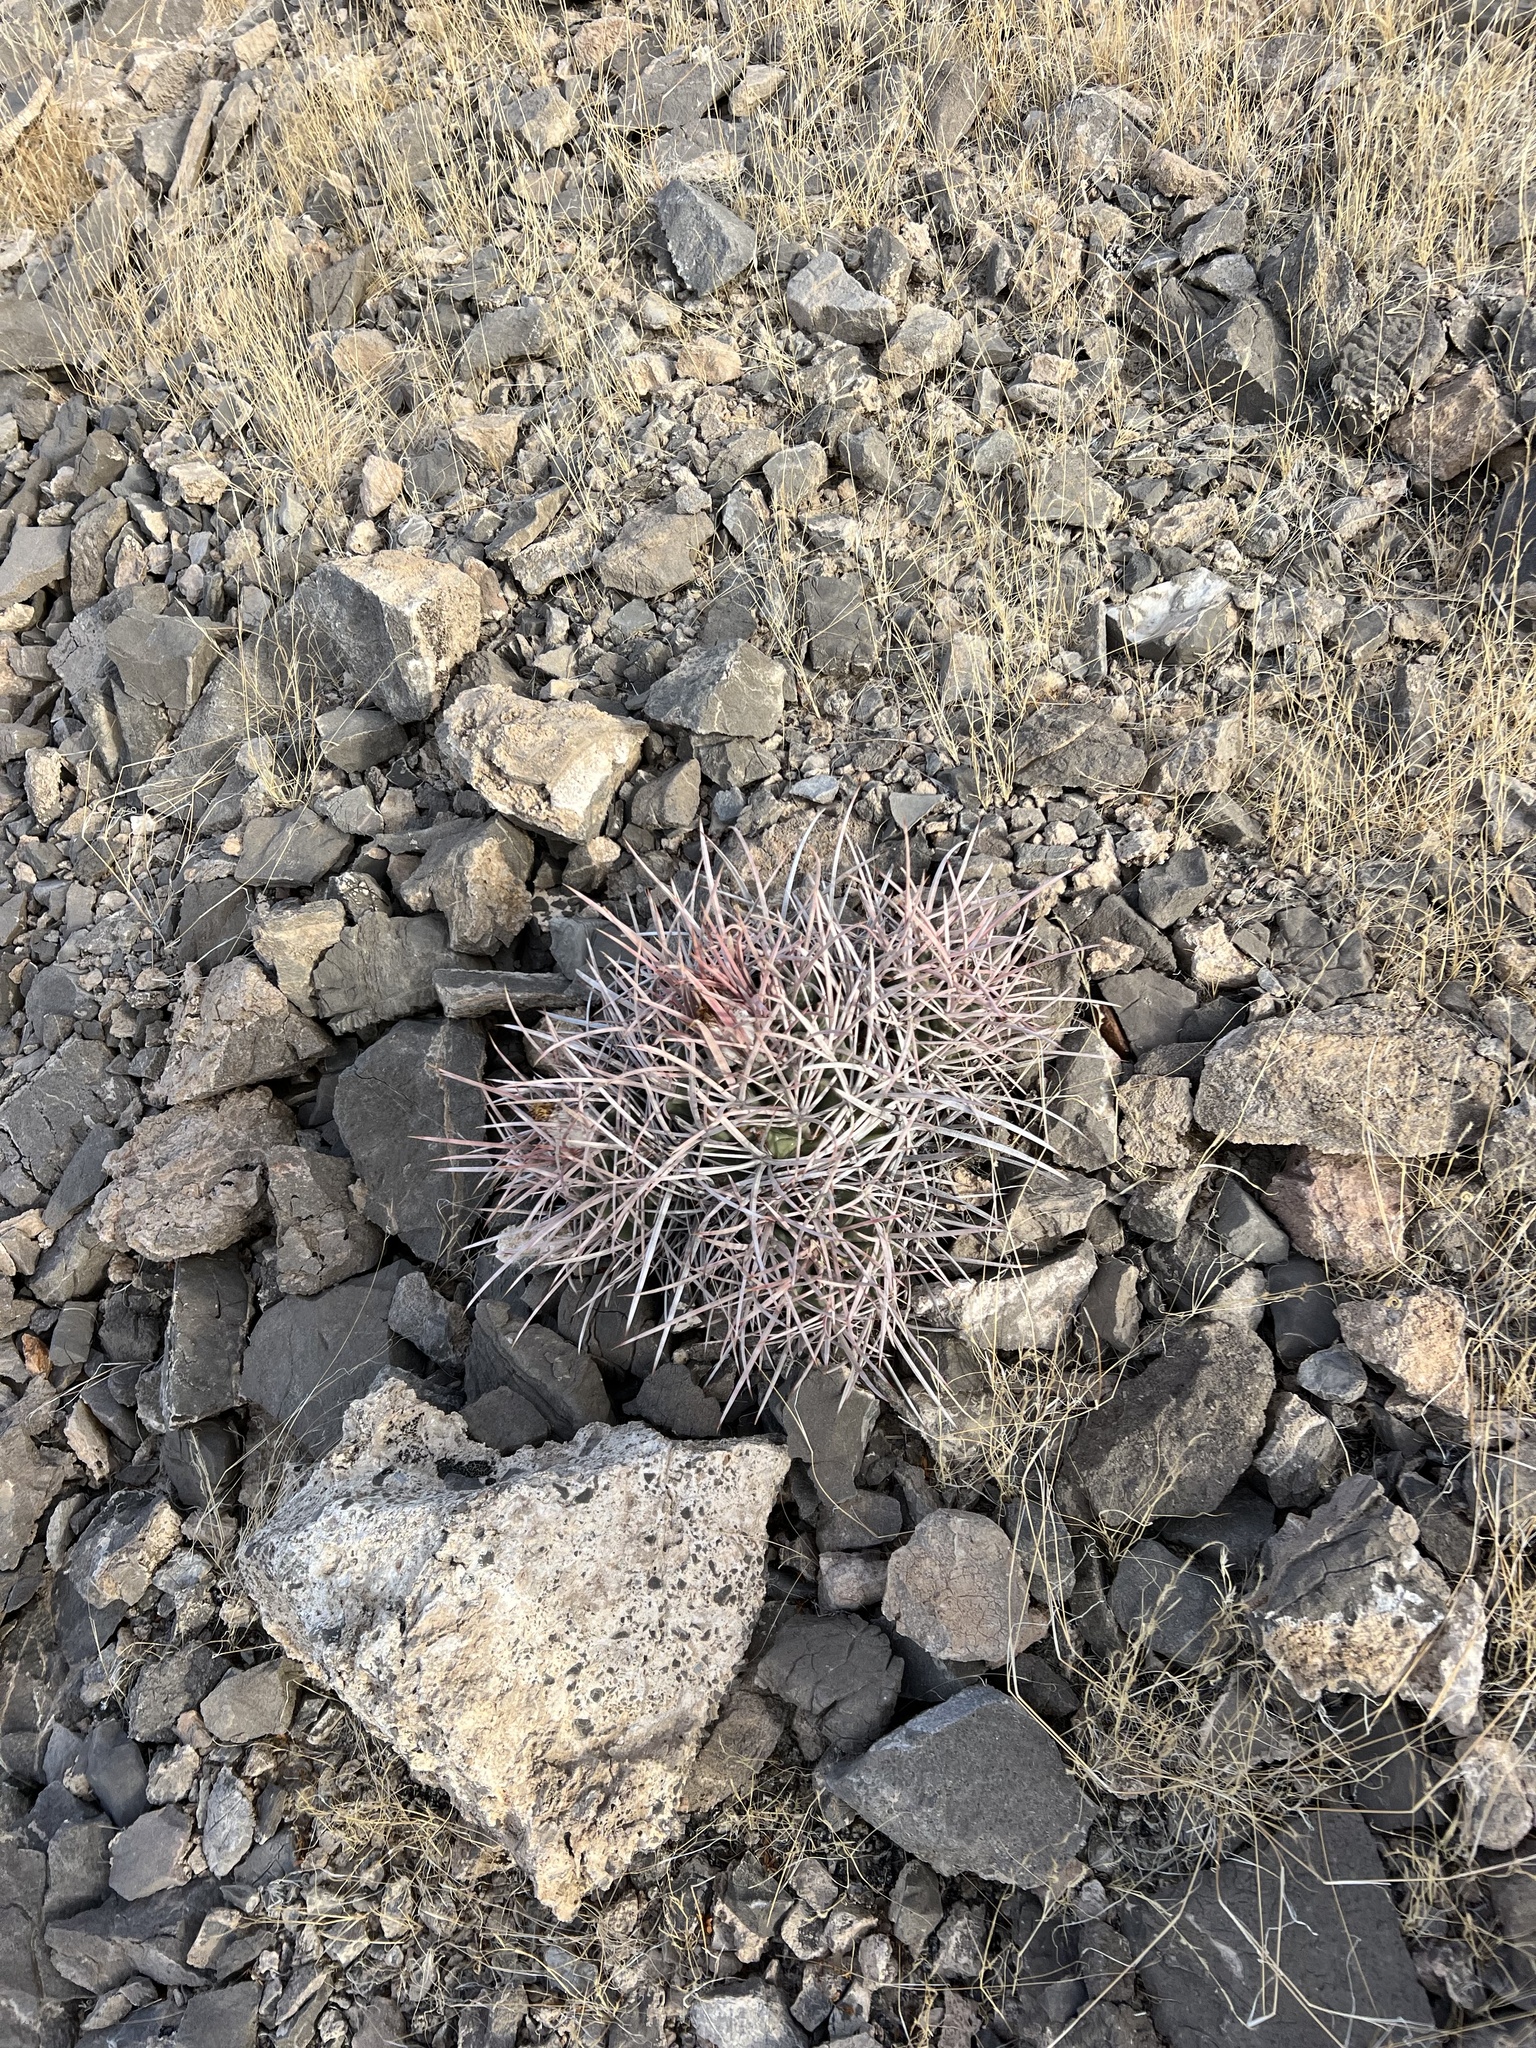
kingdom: Plantae
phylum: Tracheophyta
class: Magnoliopsida
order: Caryophyllales
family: Cactaceae
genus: Echinocactus
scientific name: Echinocactus polycephalus
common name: Cottontop cactus
